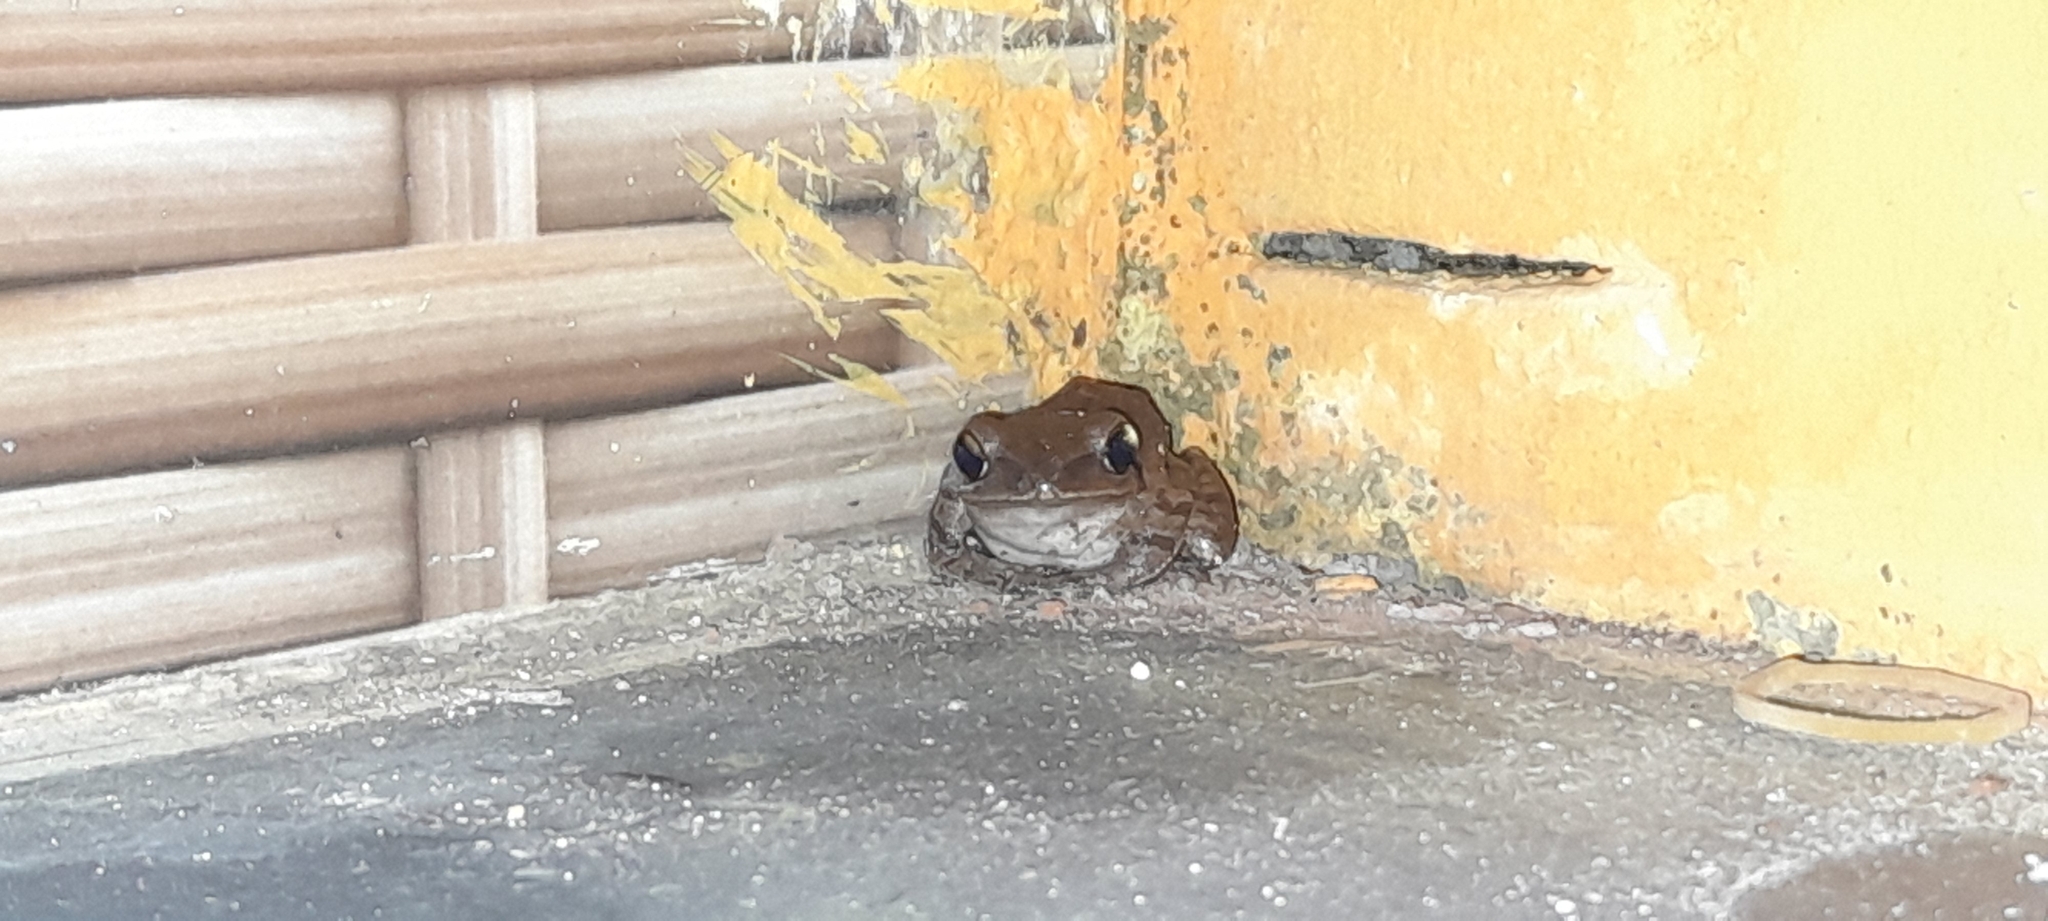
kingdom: Animalia
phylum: Chordata
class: Amphibia
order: Anura
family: Rhacophoridae
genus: Polypedates
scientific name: Polypedates maculatus
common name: Himalayan tree frog
